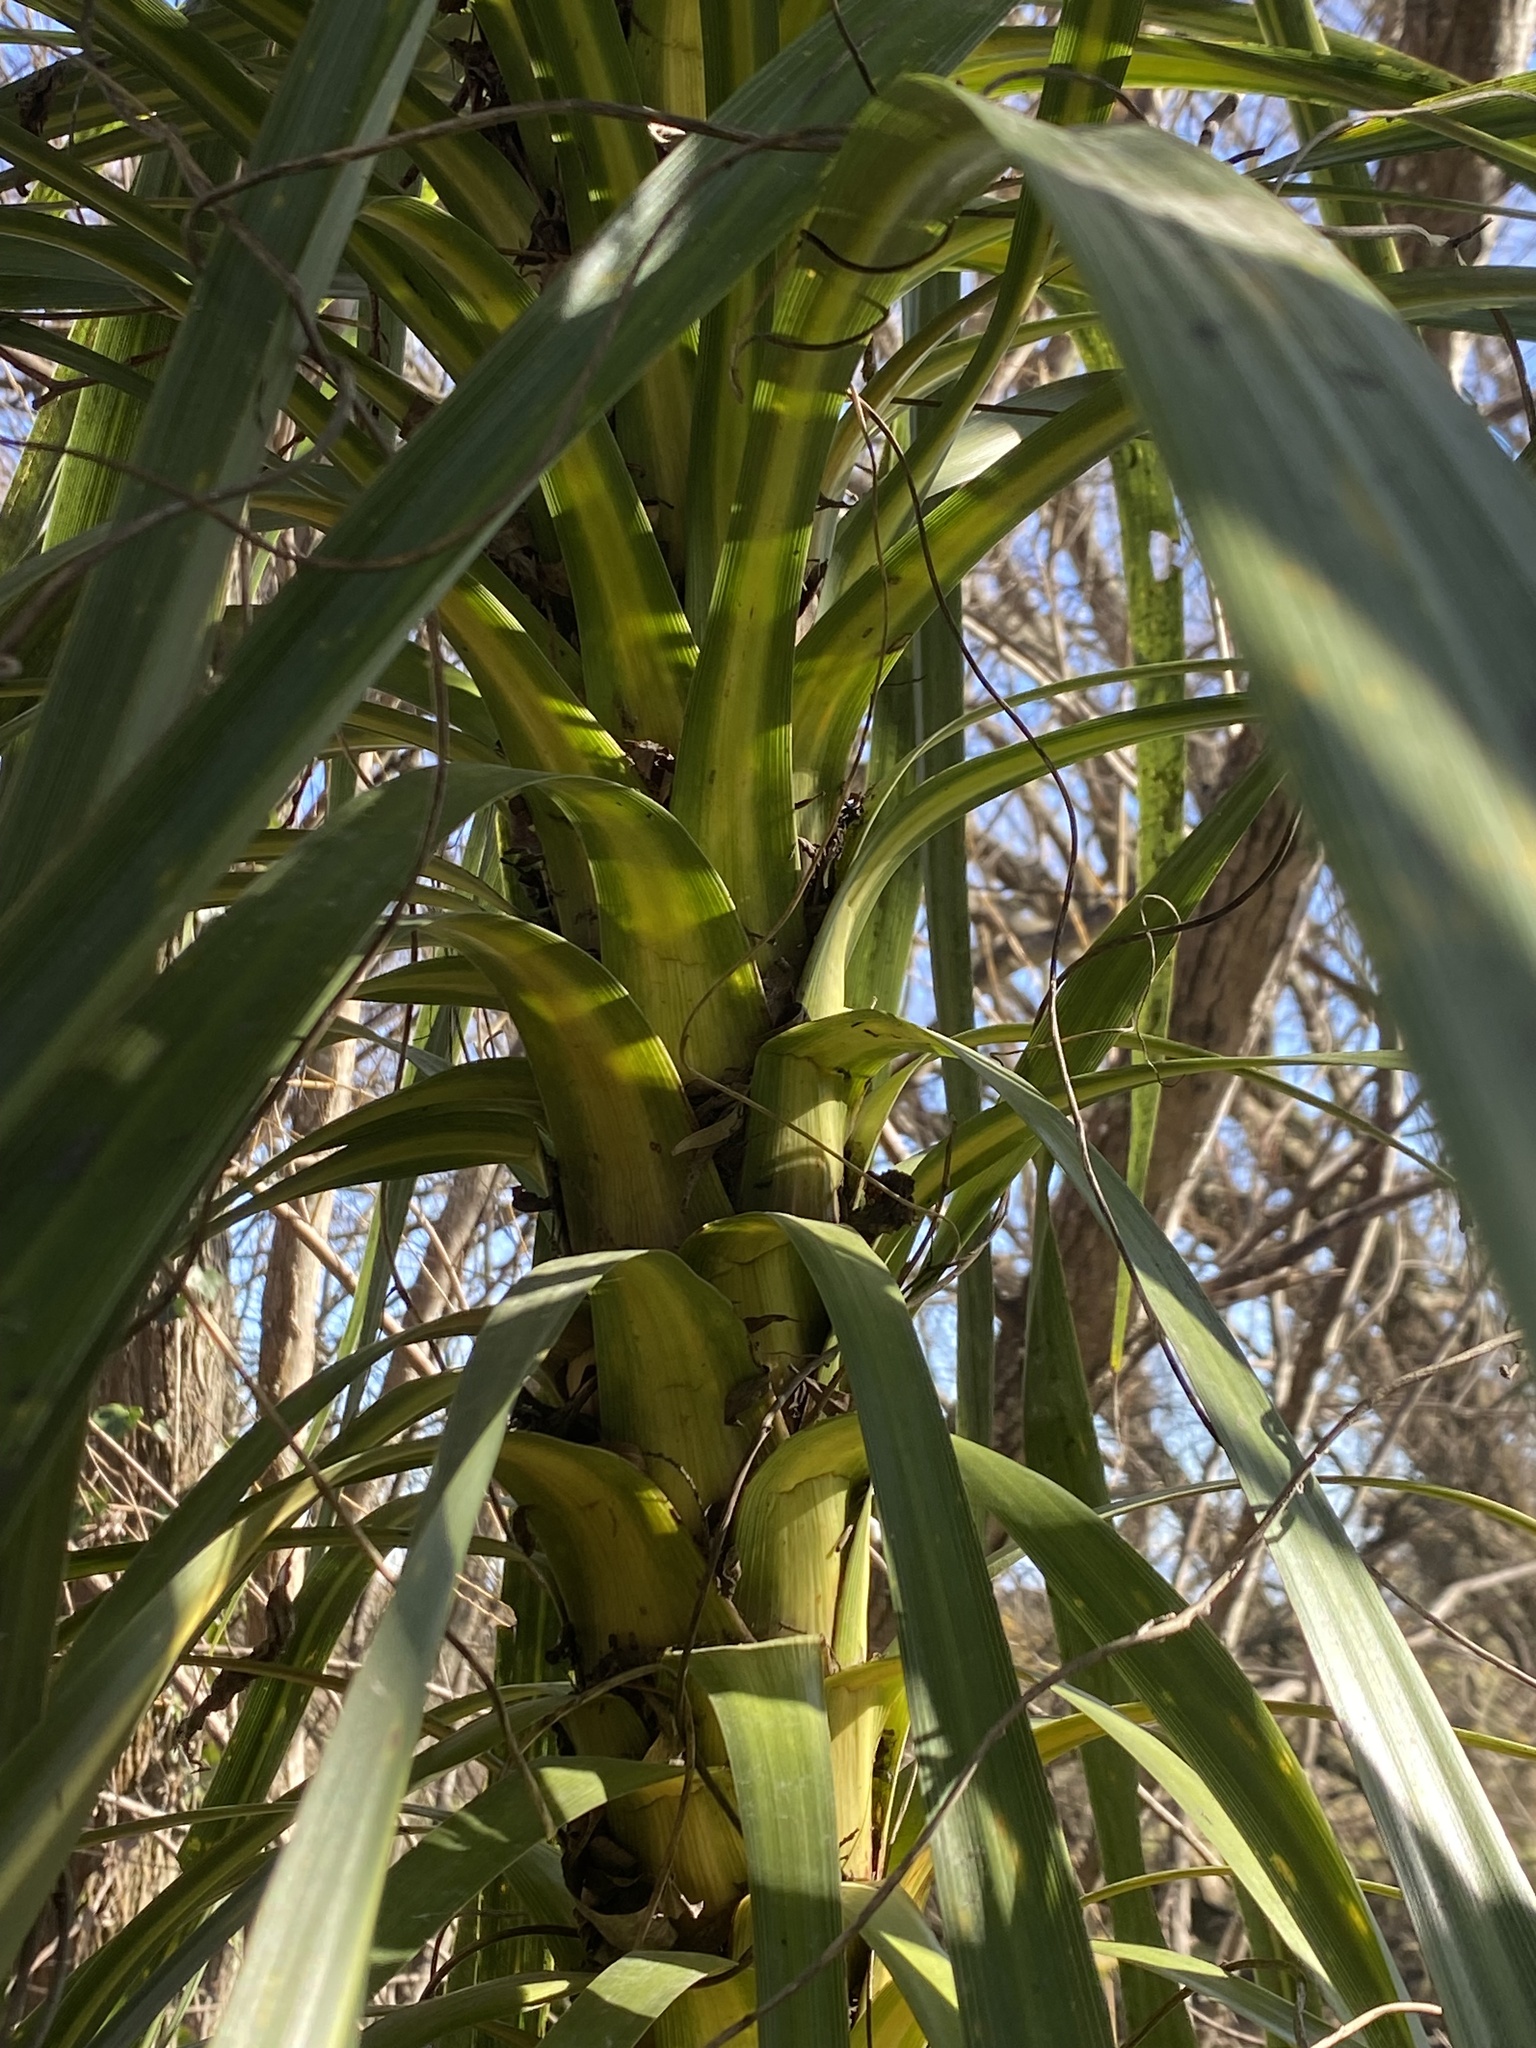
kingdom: Plantae
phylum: Tracheophyta
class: Liliopsida
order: Asparagales
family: Asparagaceae
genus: Cordyline
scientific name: Cordyline australis
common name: Cabbage-palm
